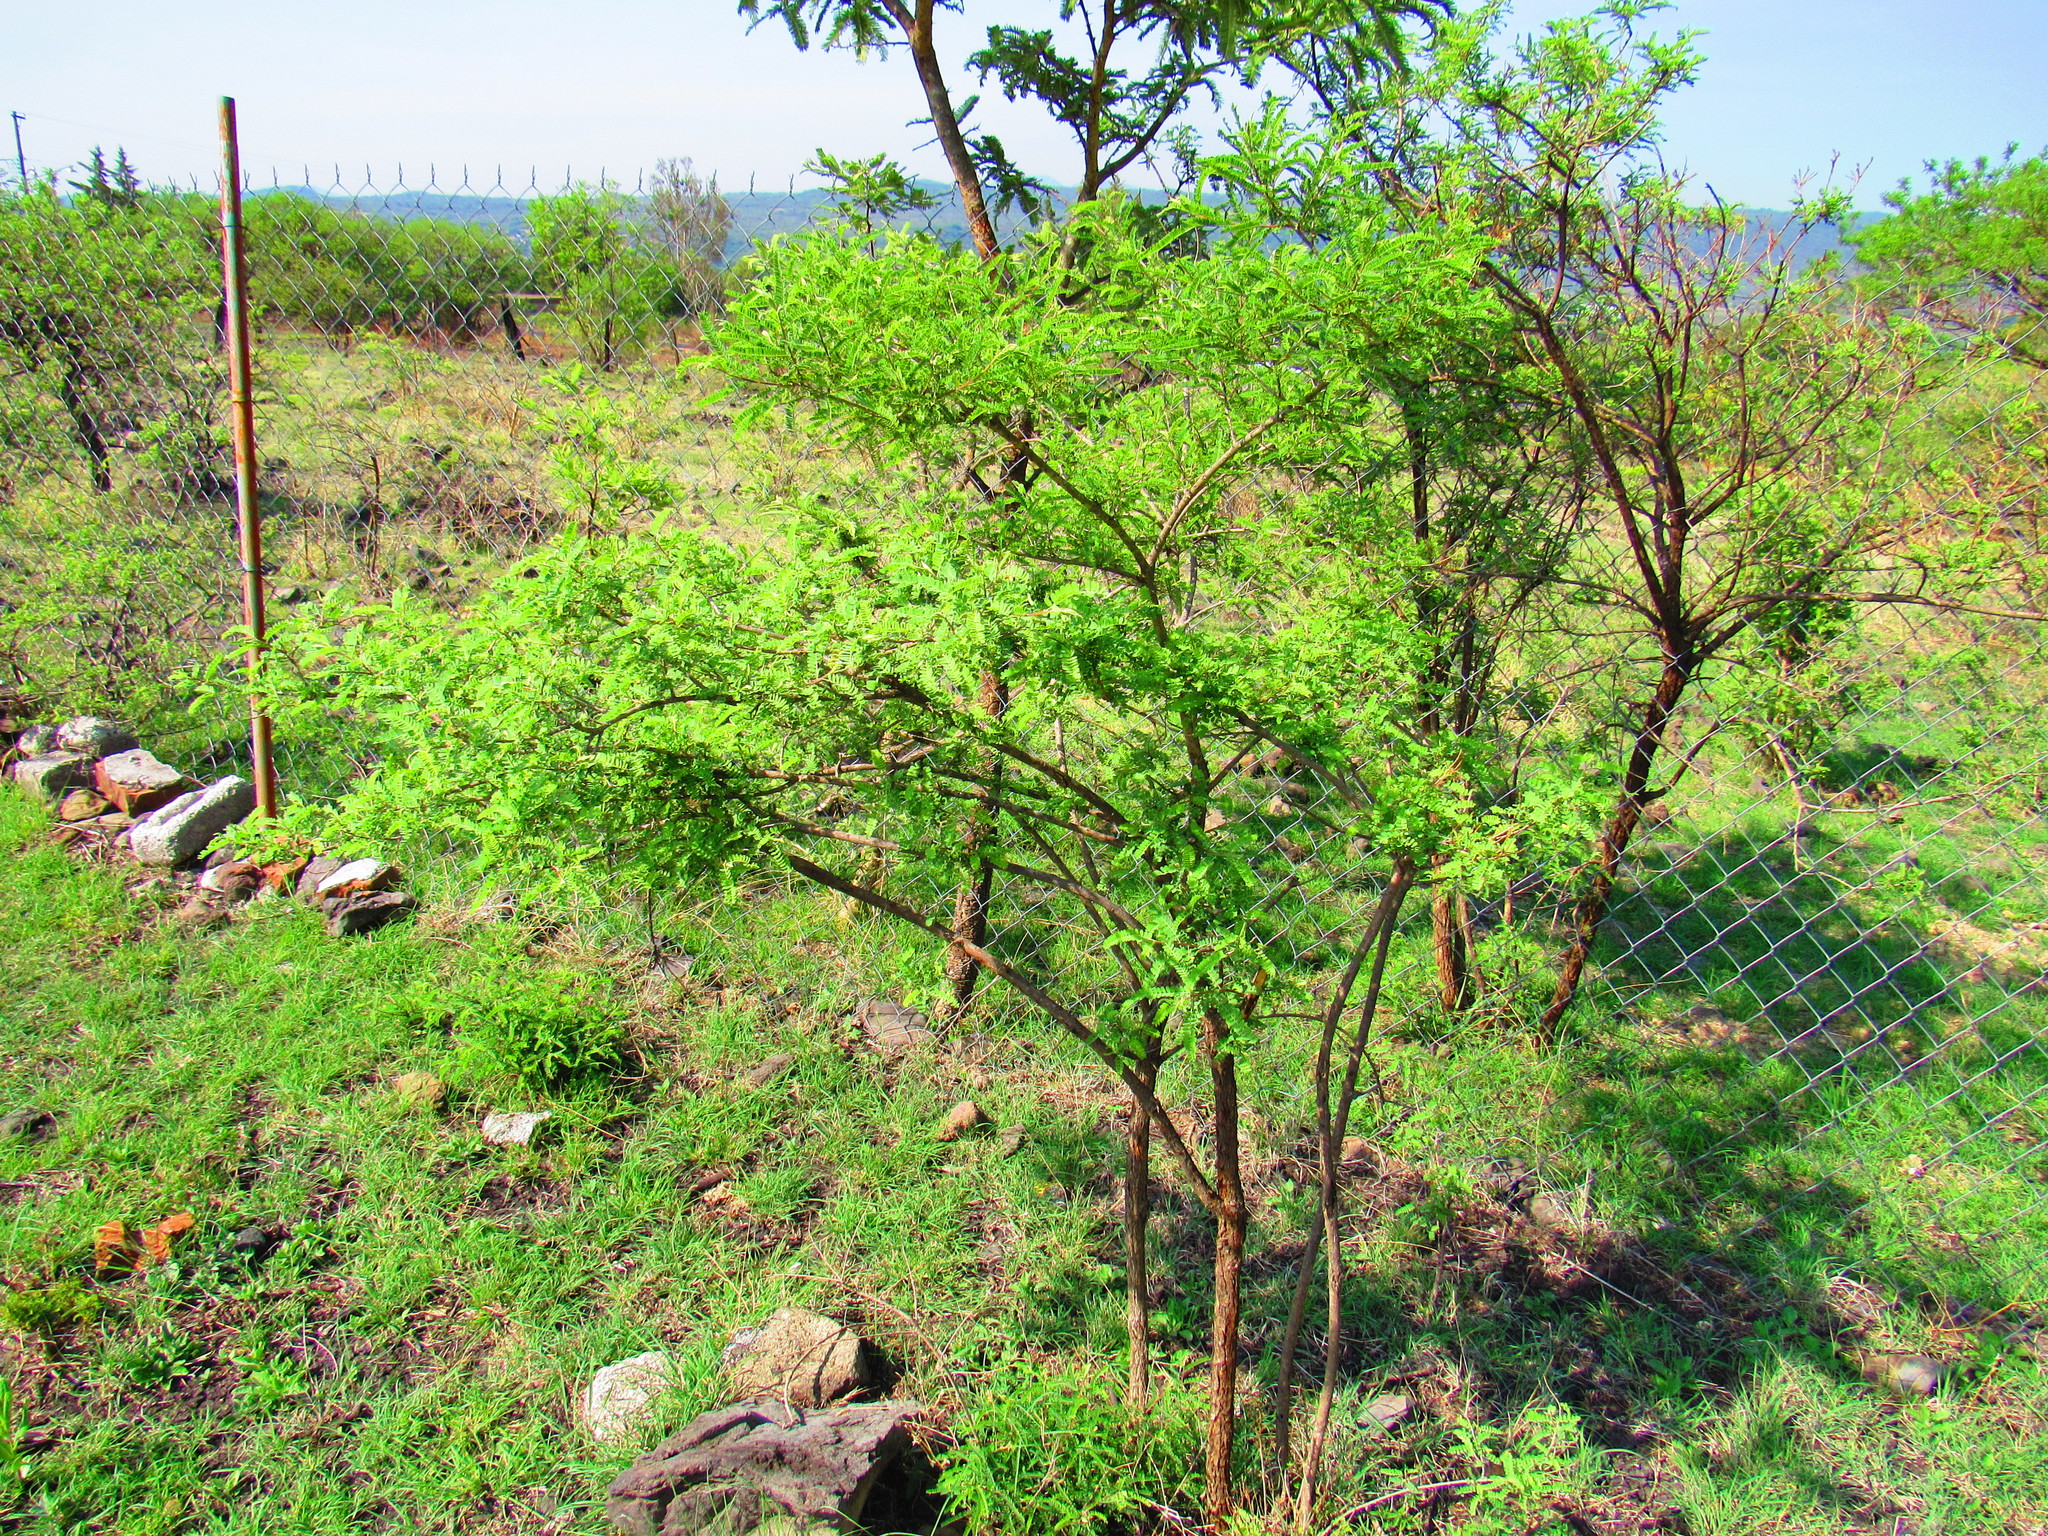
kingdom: Plantae
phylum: Tracheophyta
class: Magnoliopsida
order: Fabales
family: Fabaceae
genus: Eysenhardtia
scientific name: Eysenhardtia polystachya
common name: Kidneywood
